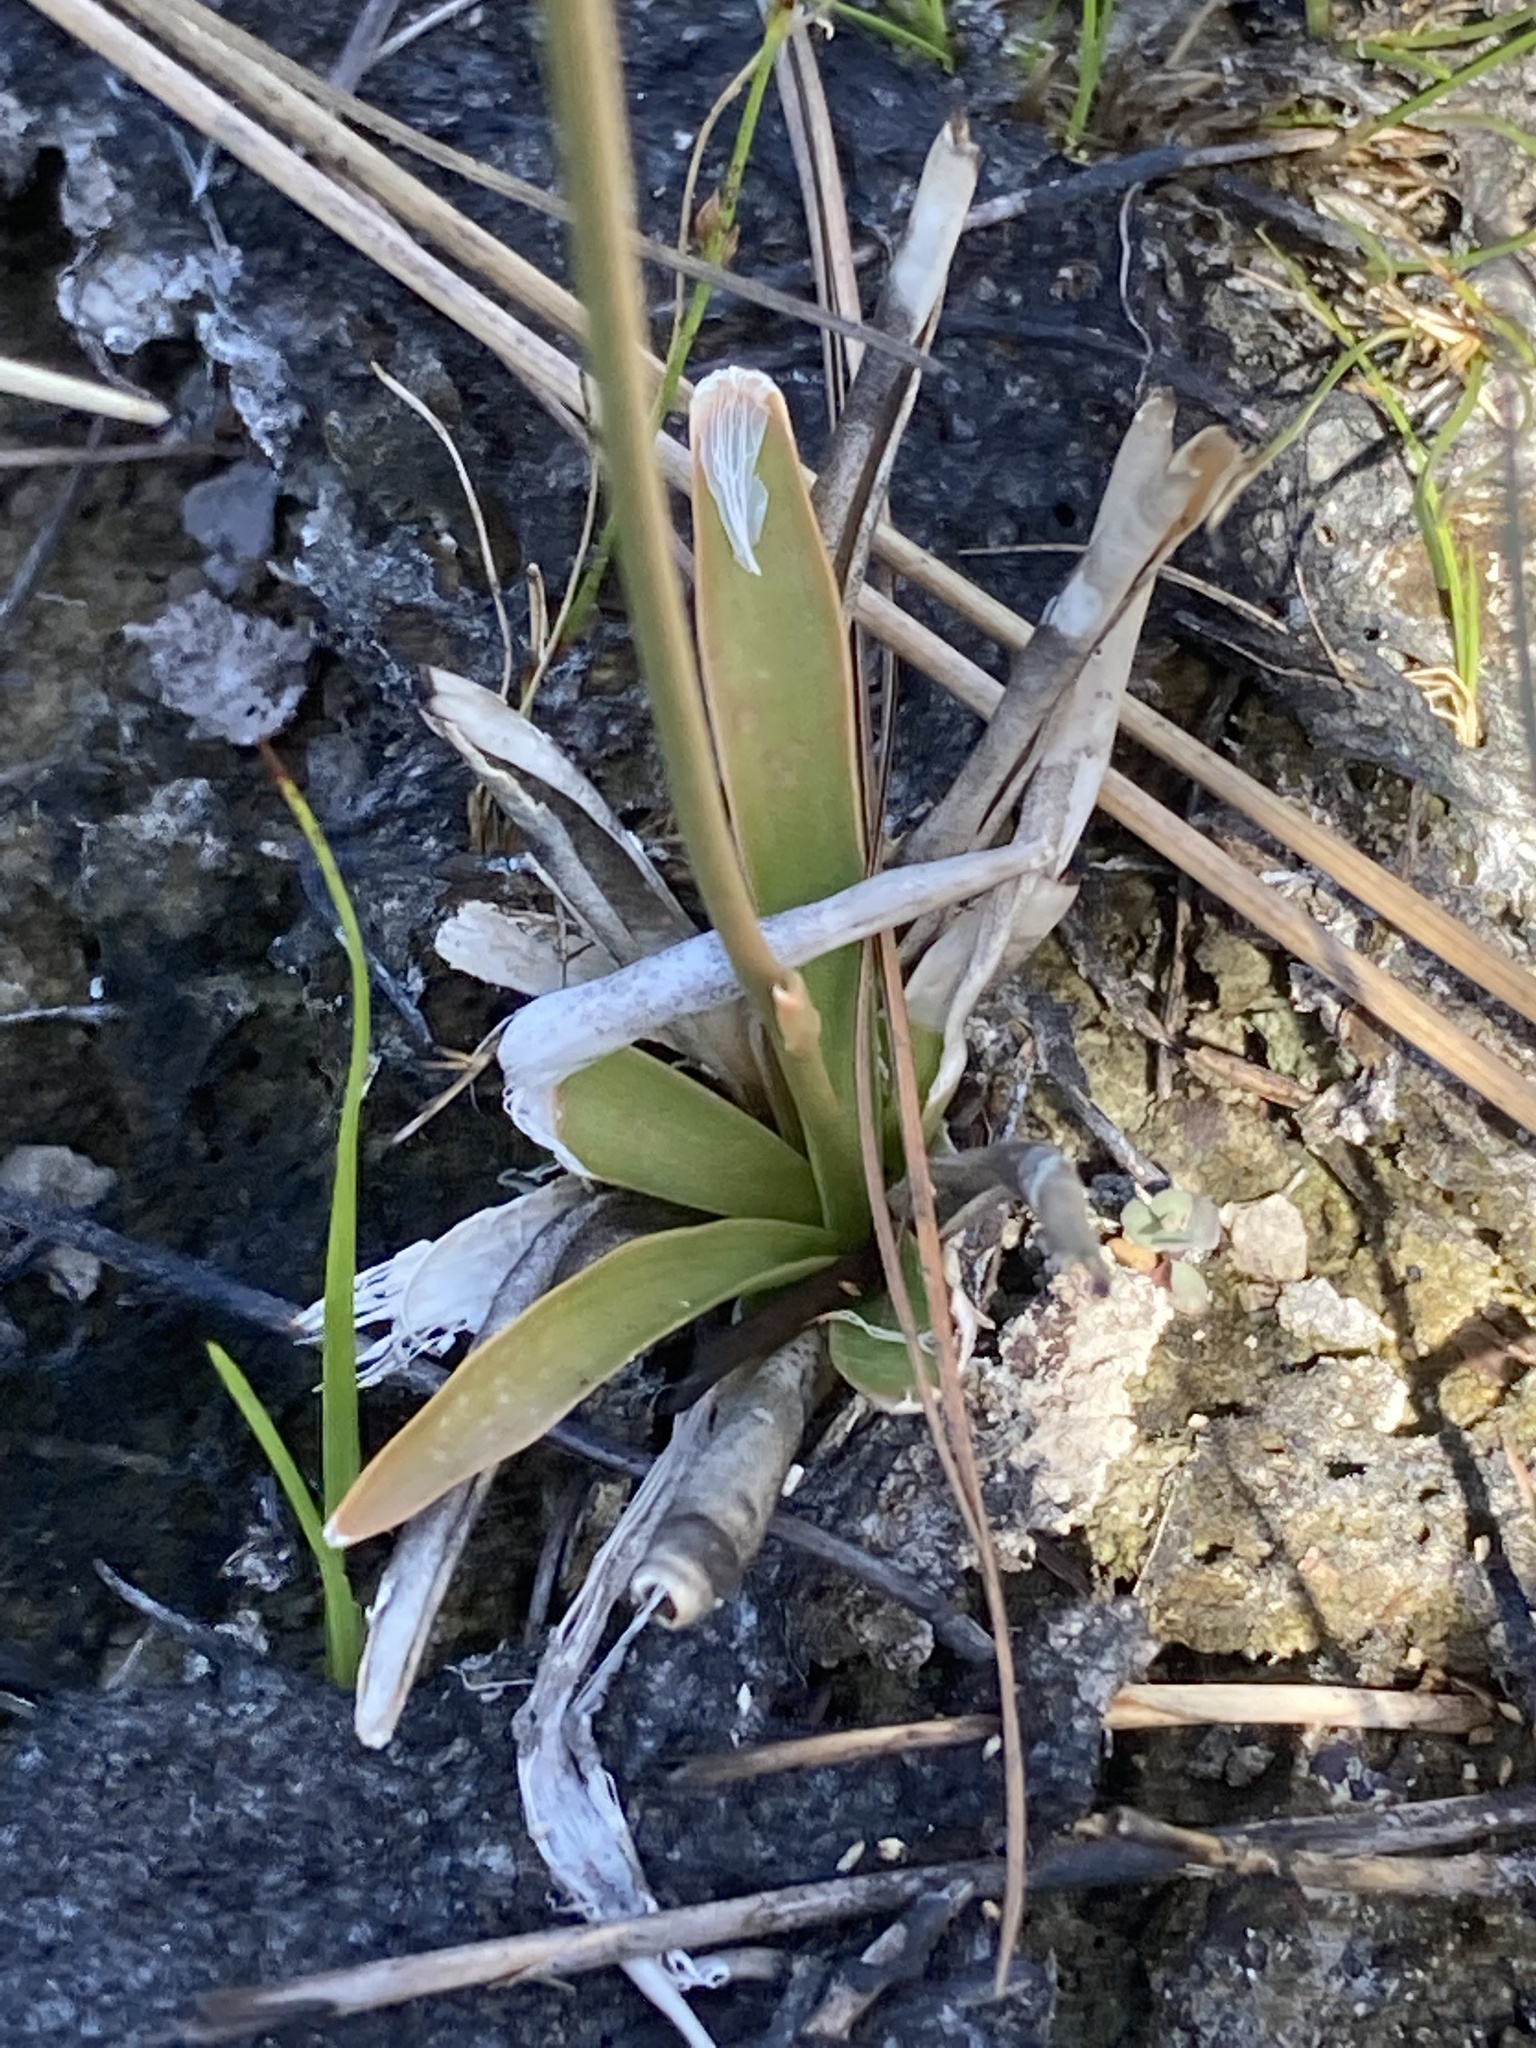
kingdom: Plantae
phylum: Tracheophyta
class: Liliopsida
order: Dioscoreales
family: Nartheciaceae
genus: Aletris
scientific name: Aletris bracteata
